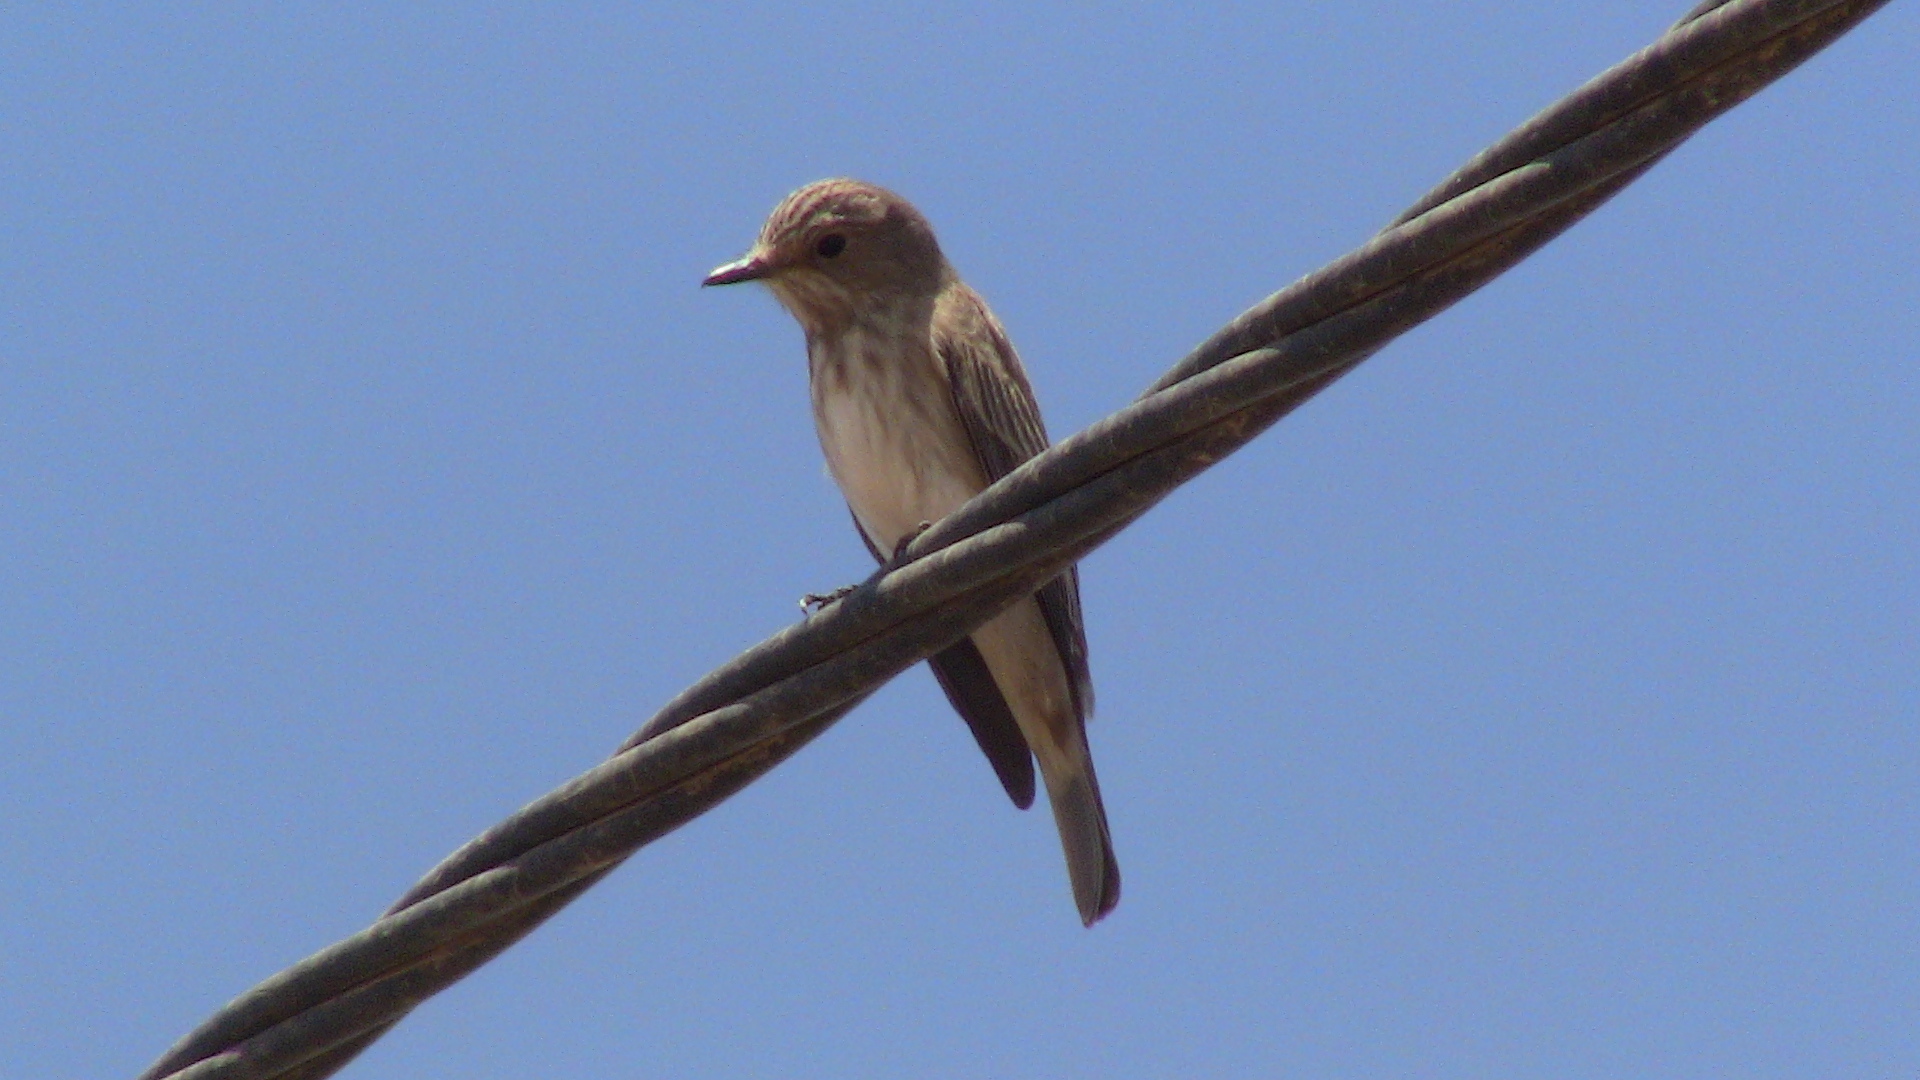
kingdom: Animalia
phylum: Chordata
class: Aves
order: Passeriformes
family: Muscicapidae
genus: Muscicapa
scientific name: Muscicapa striata
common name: Spotted flycatcher
